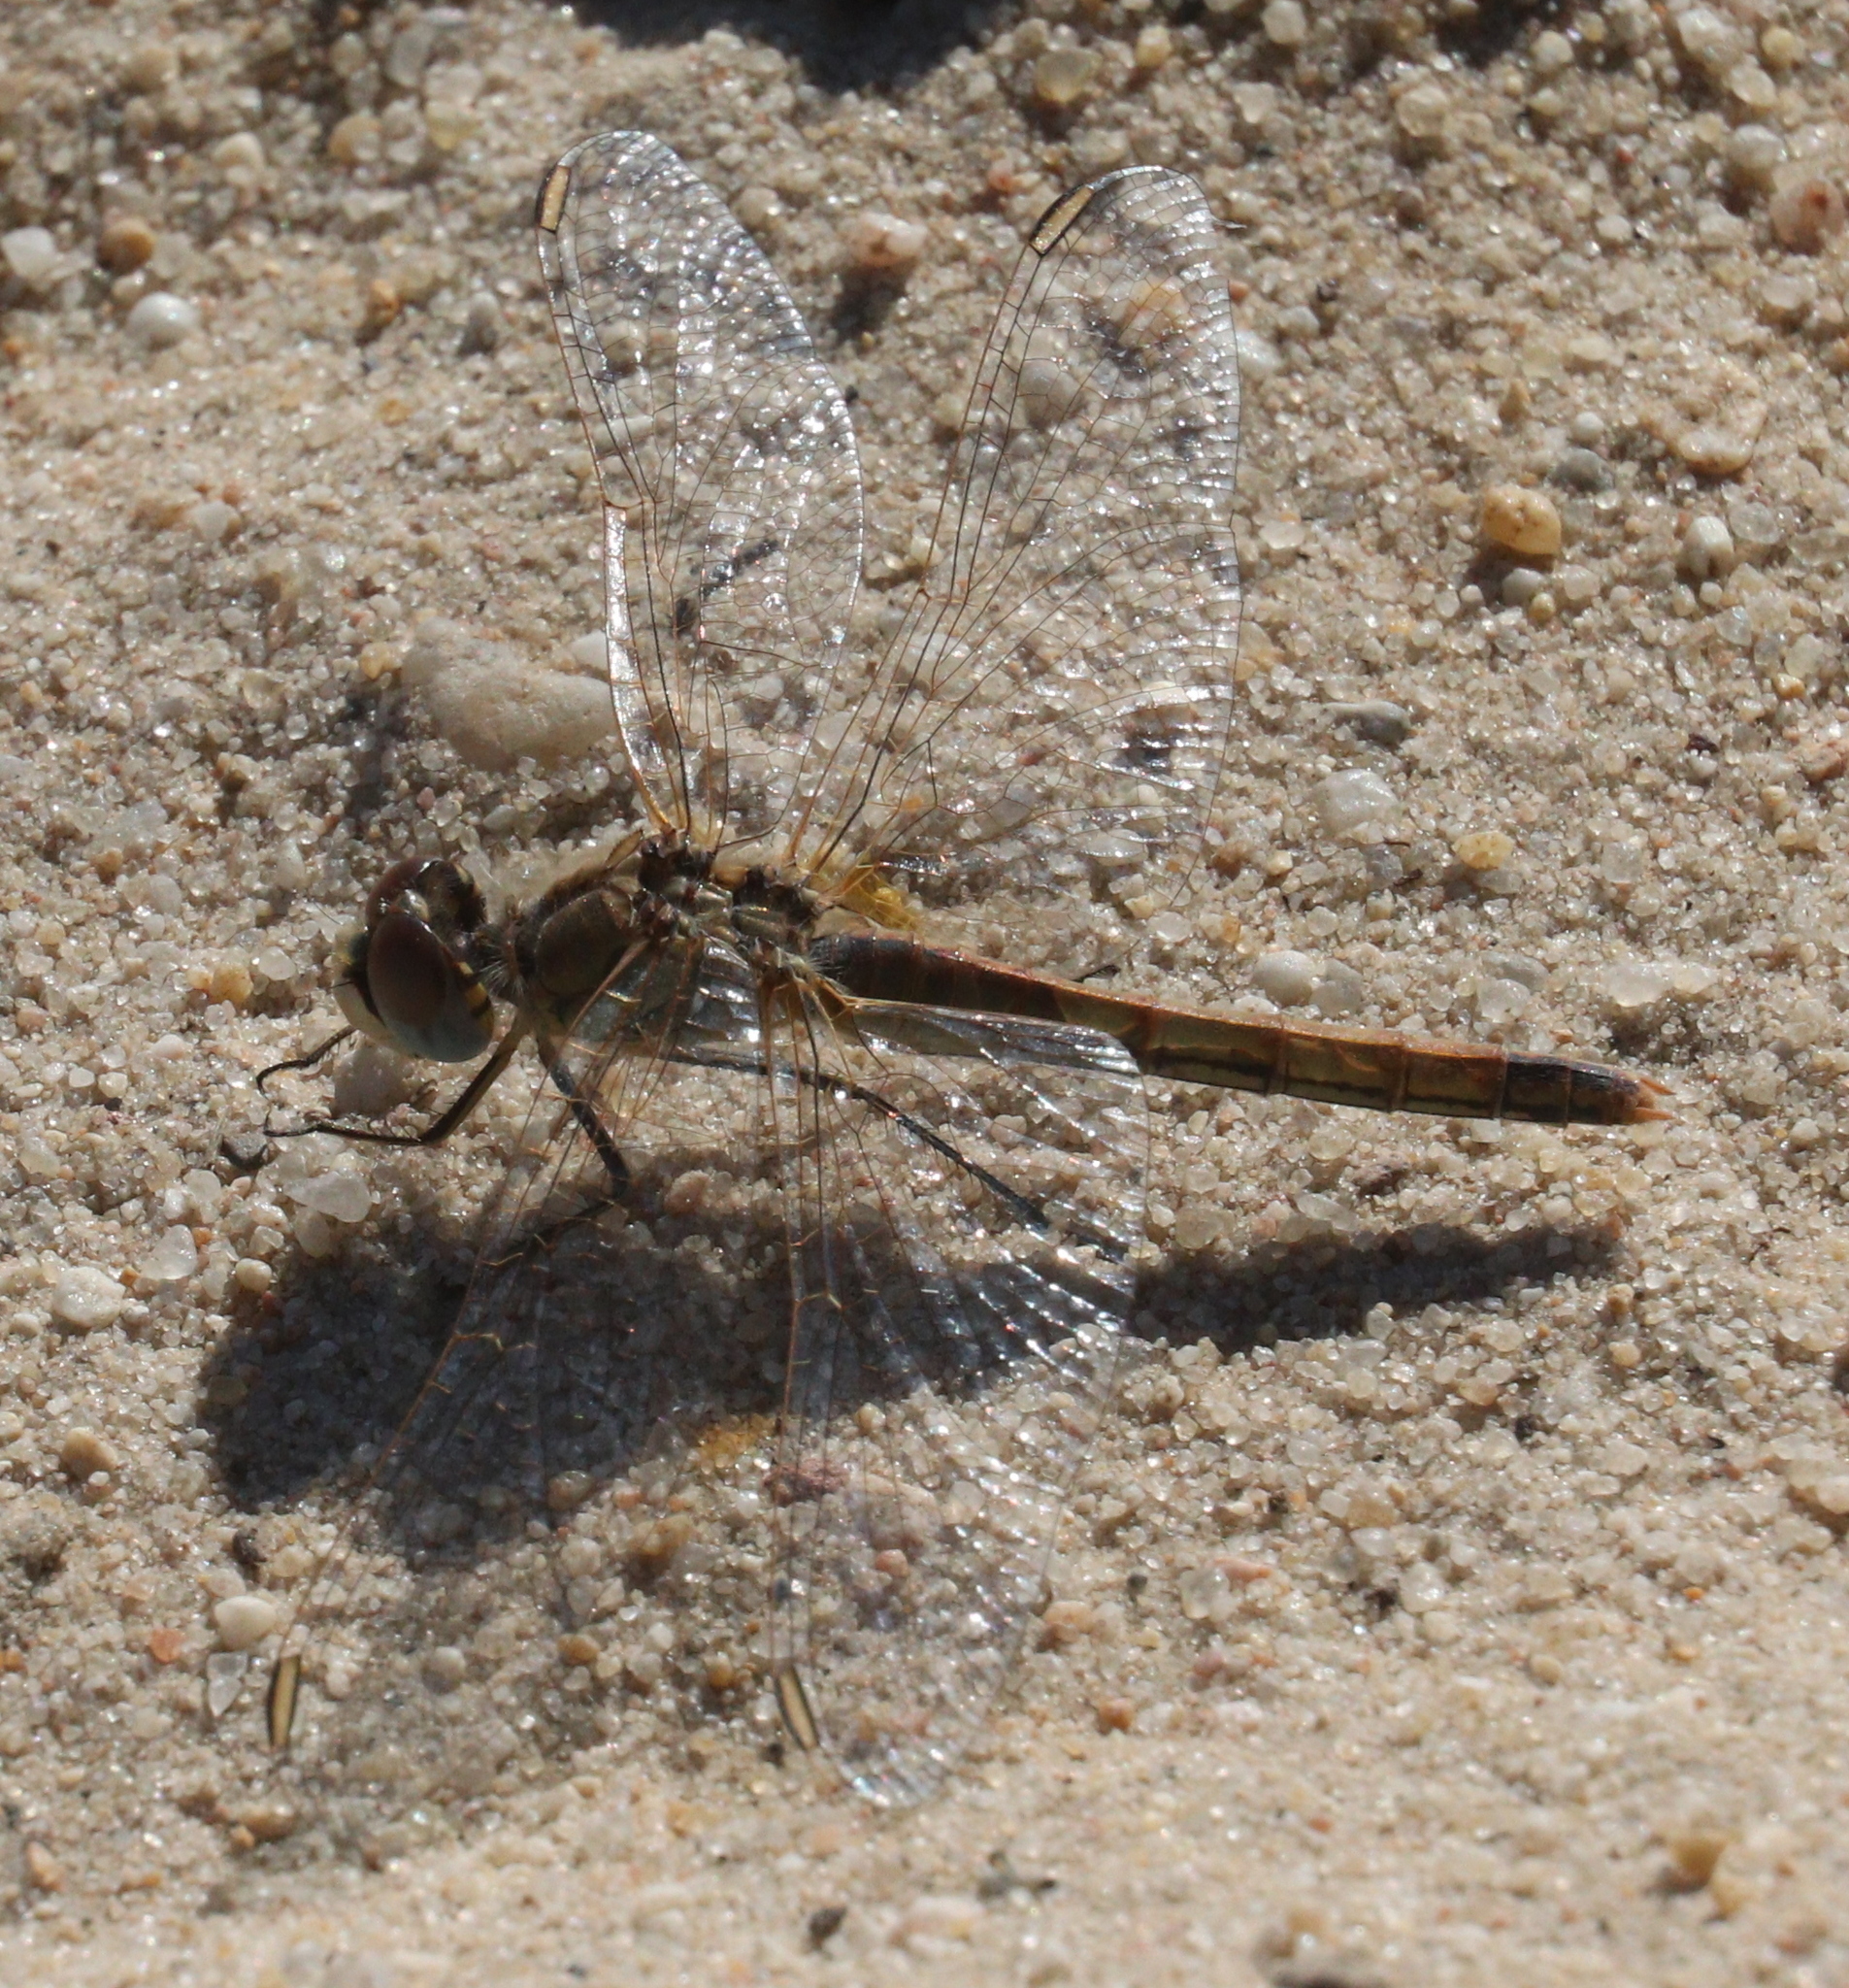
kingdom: Animalia
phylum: Arthropoda
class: Insecta
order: Odonata
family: Libellulidae
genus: Sympetrum
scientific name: Sympetrum fonscolombii
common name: Red-veined darter
